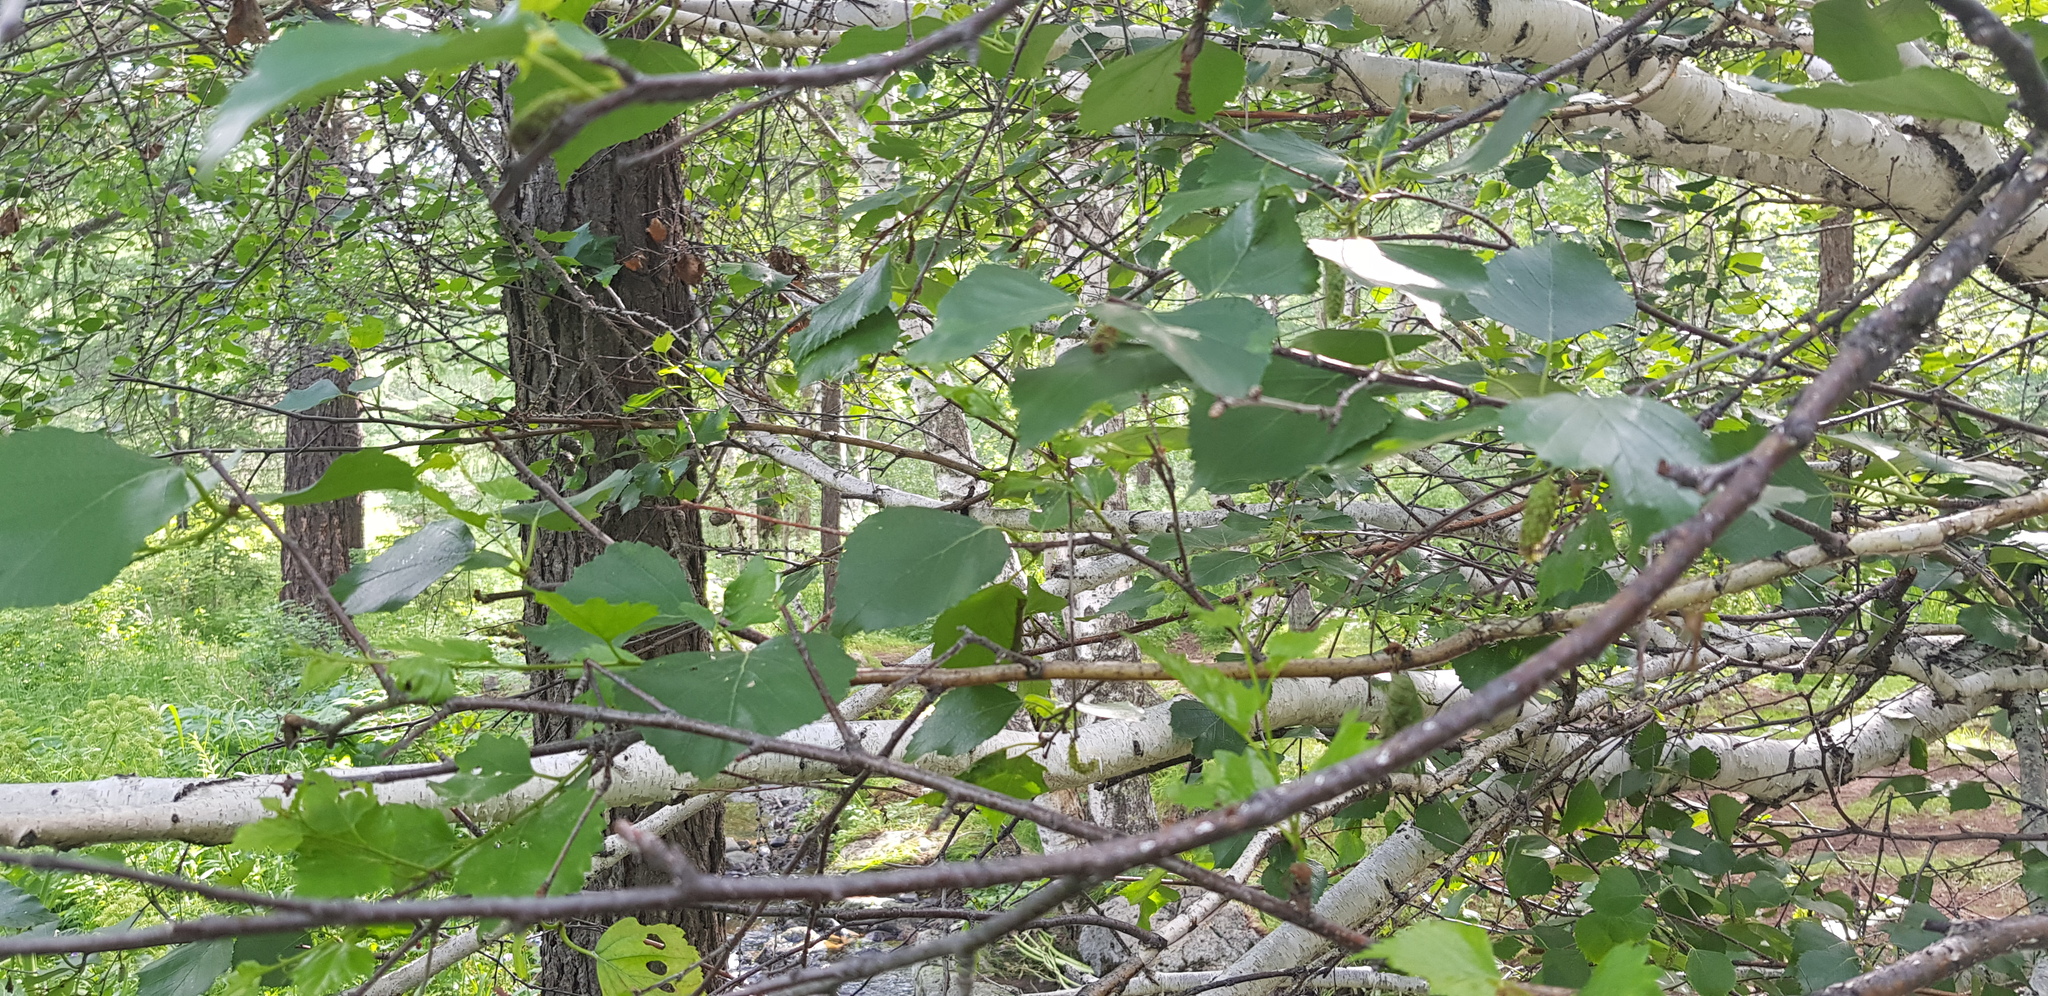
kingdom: Plantae
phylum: Tracheophyta
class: Magnoliopsida
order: Fagales
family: Betulaceae
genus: Betula
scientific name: Betula pendula
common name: Silver birch
